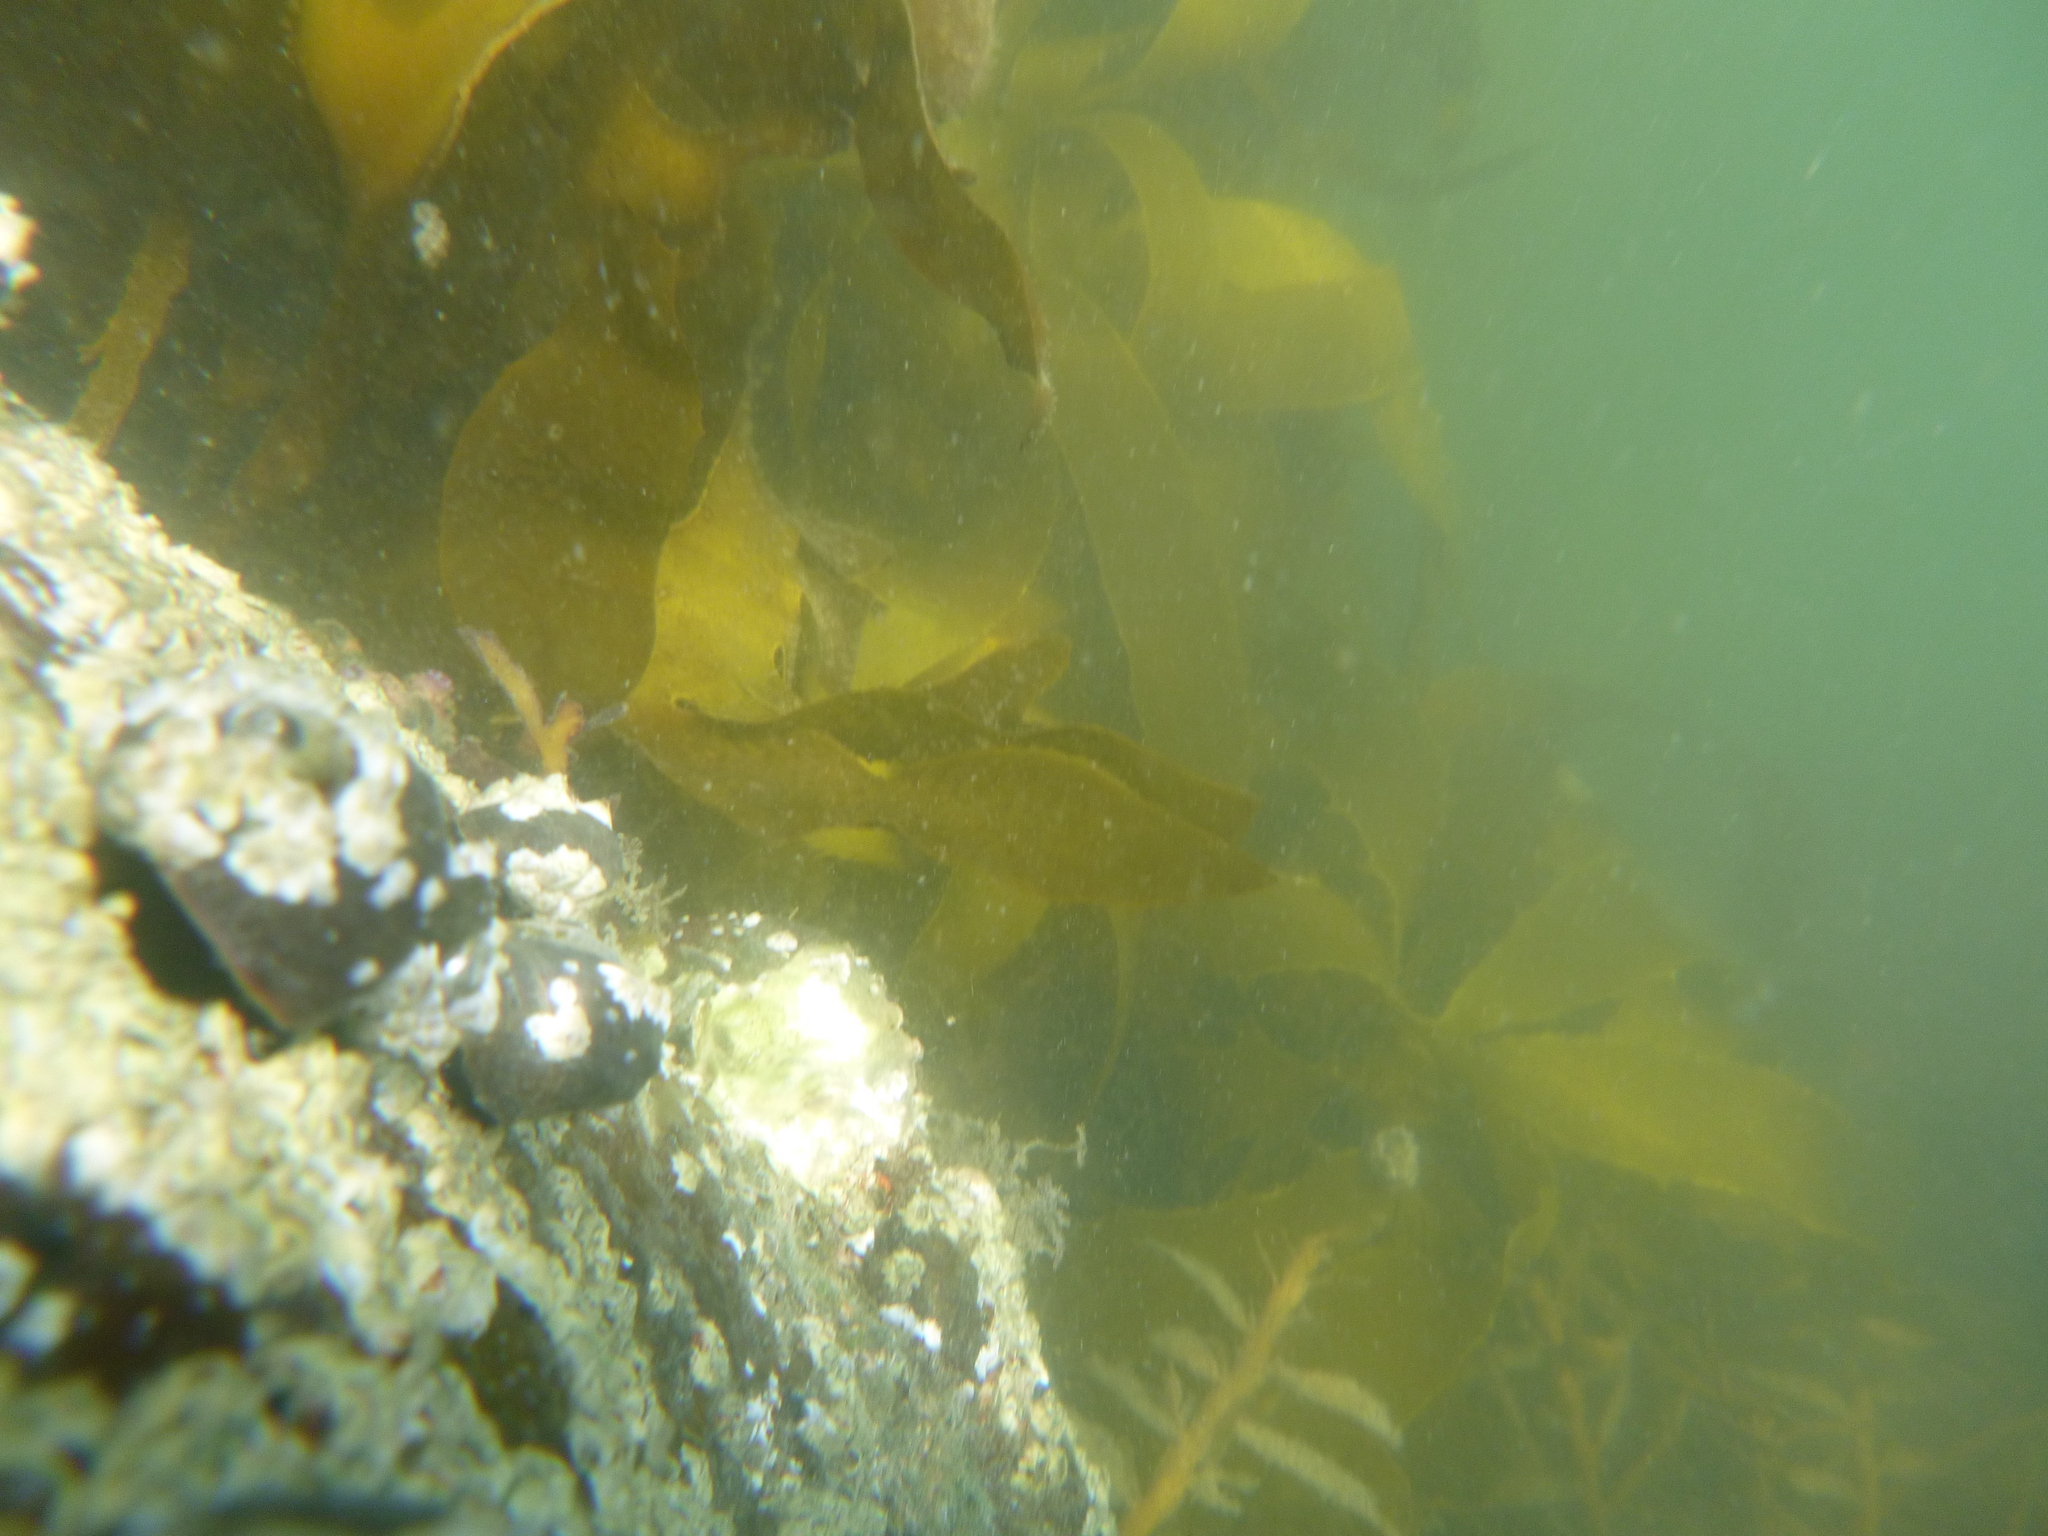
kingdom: Chromista
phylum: Ochrophyta
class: Phaeophyceae
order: Laminariales
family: Lessoniaceae
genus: Ecklonia
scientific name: Ecklonia radiata
